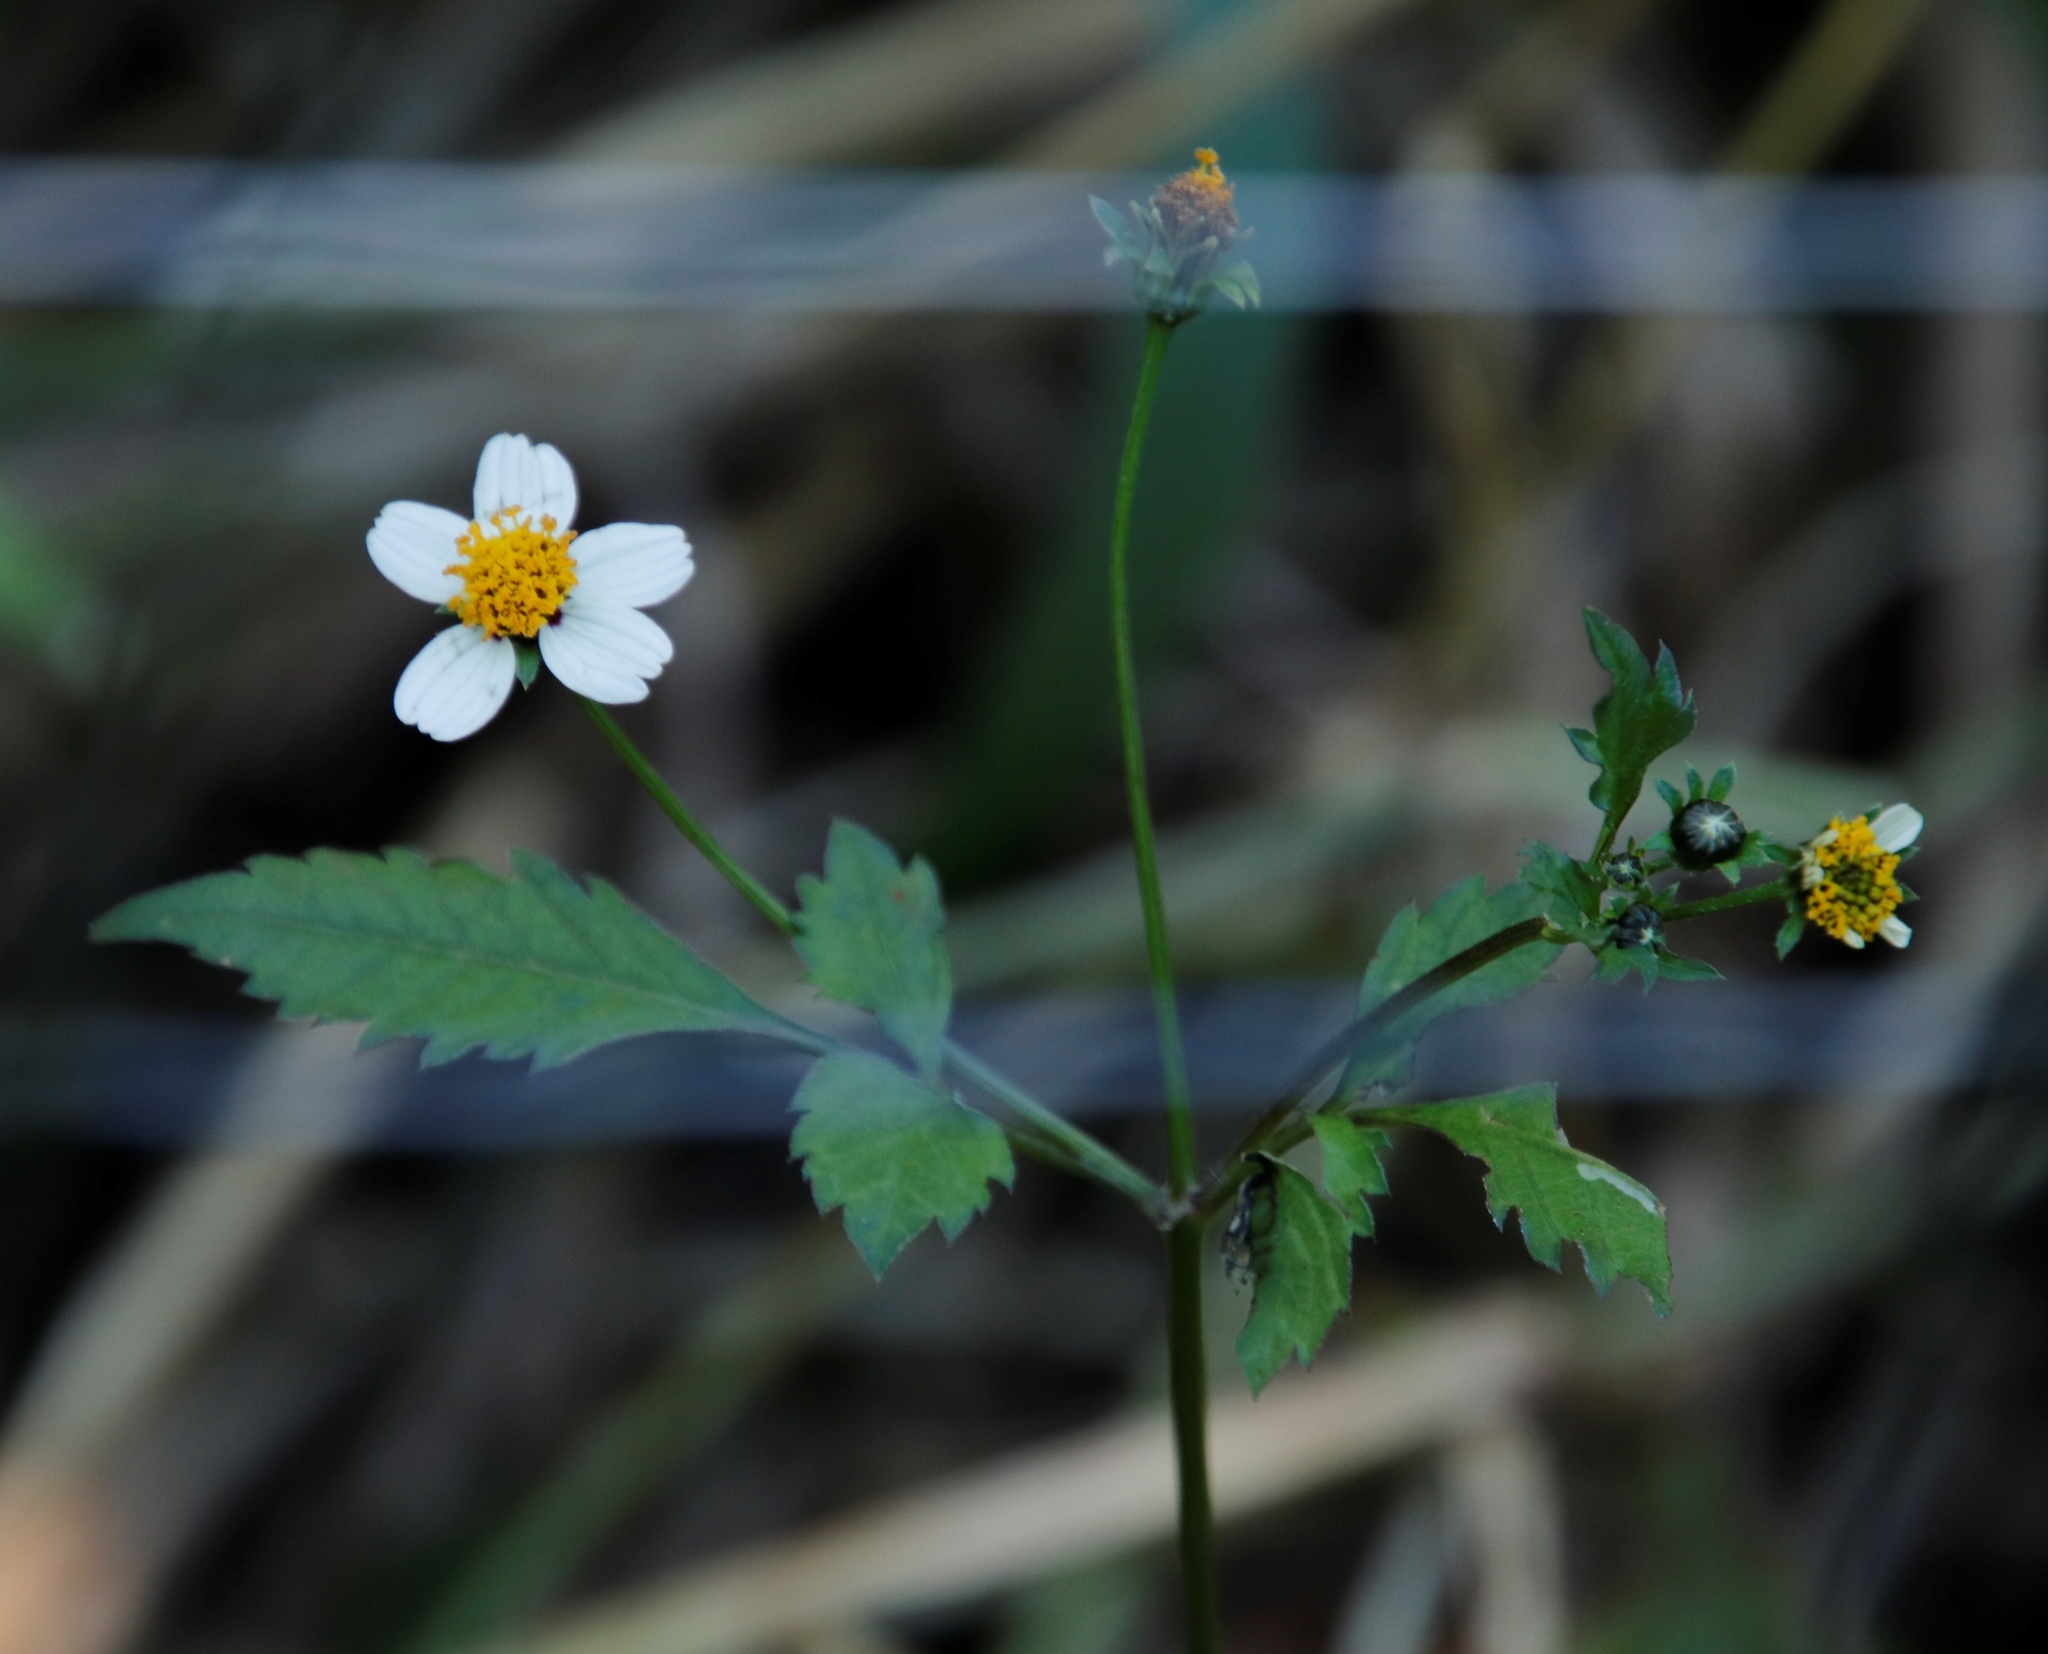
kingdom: Plantae
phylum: Tracheophyta
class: Magnoliopsida
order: Asterales
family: Asteraceae
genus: Bidens
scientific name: Bidens pilosa
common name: Black-jack
